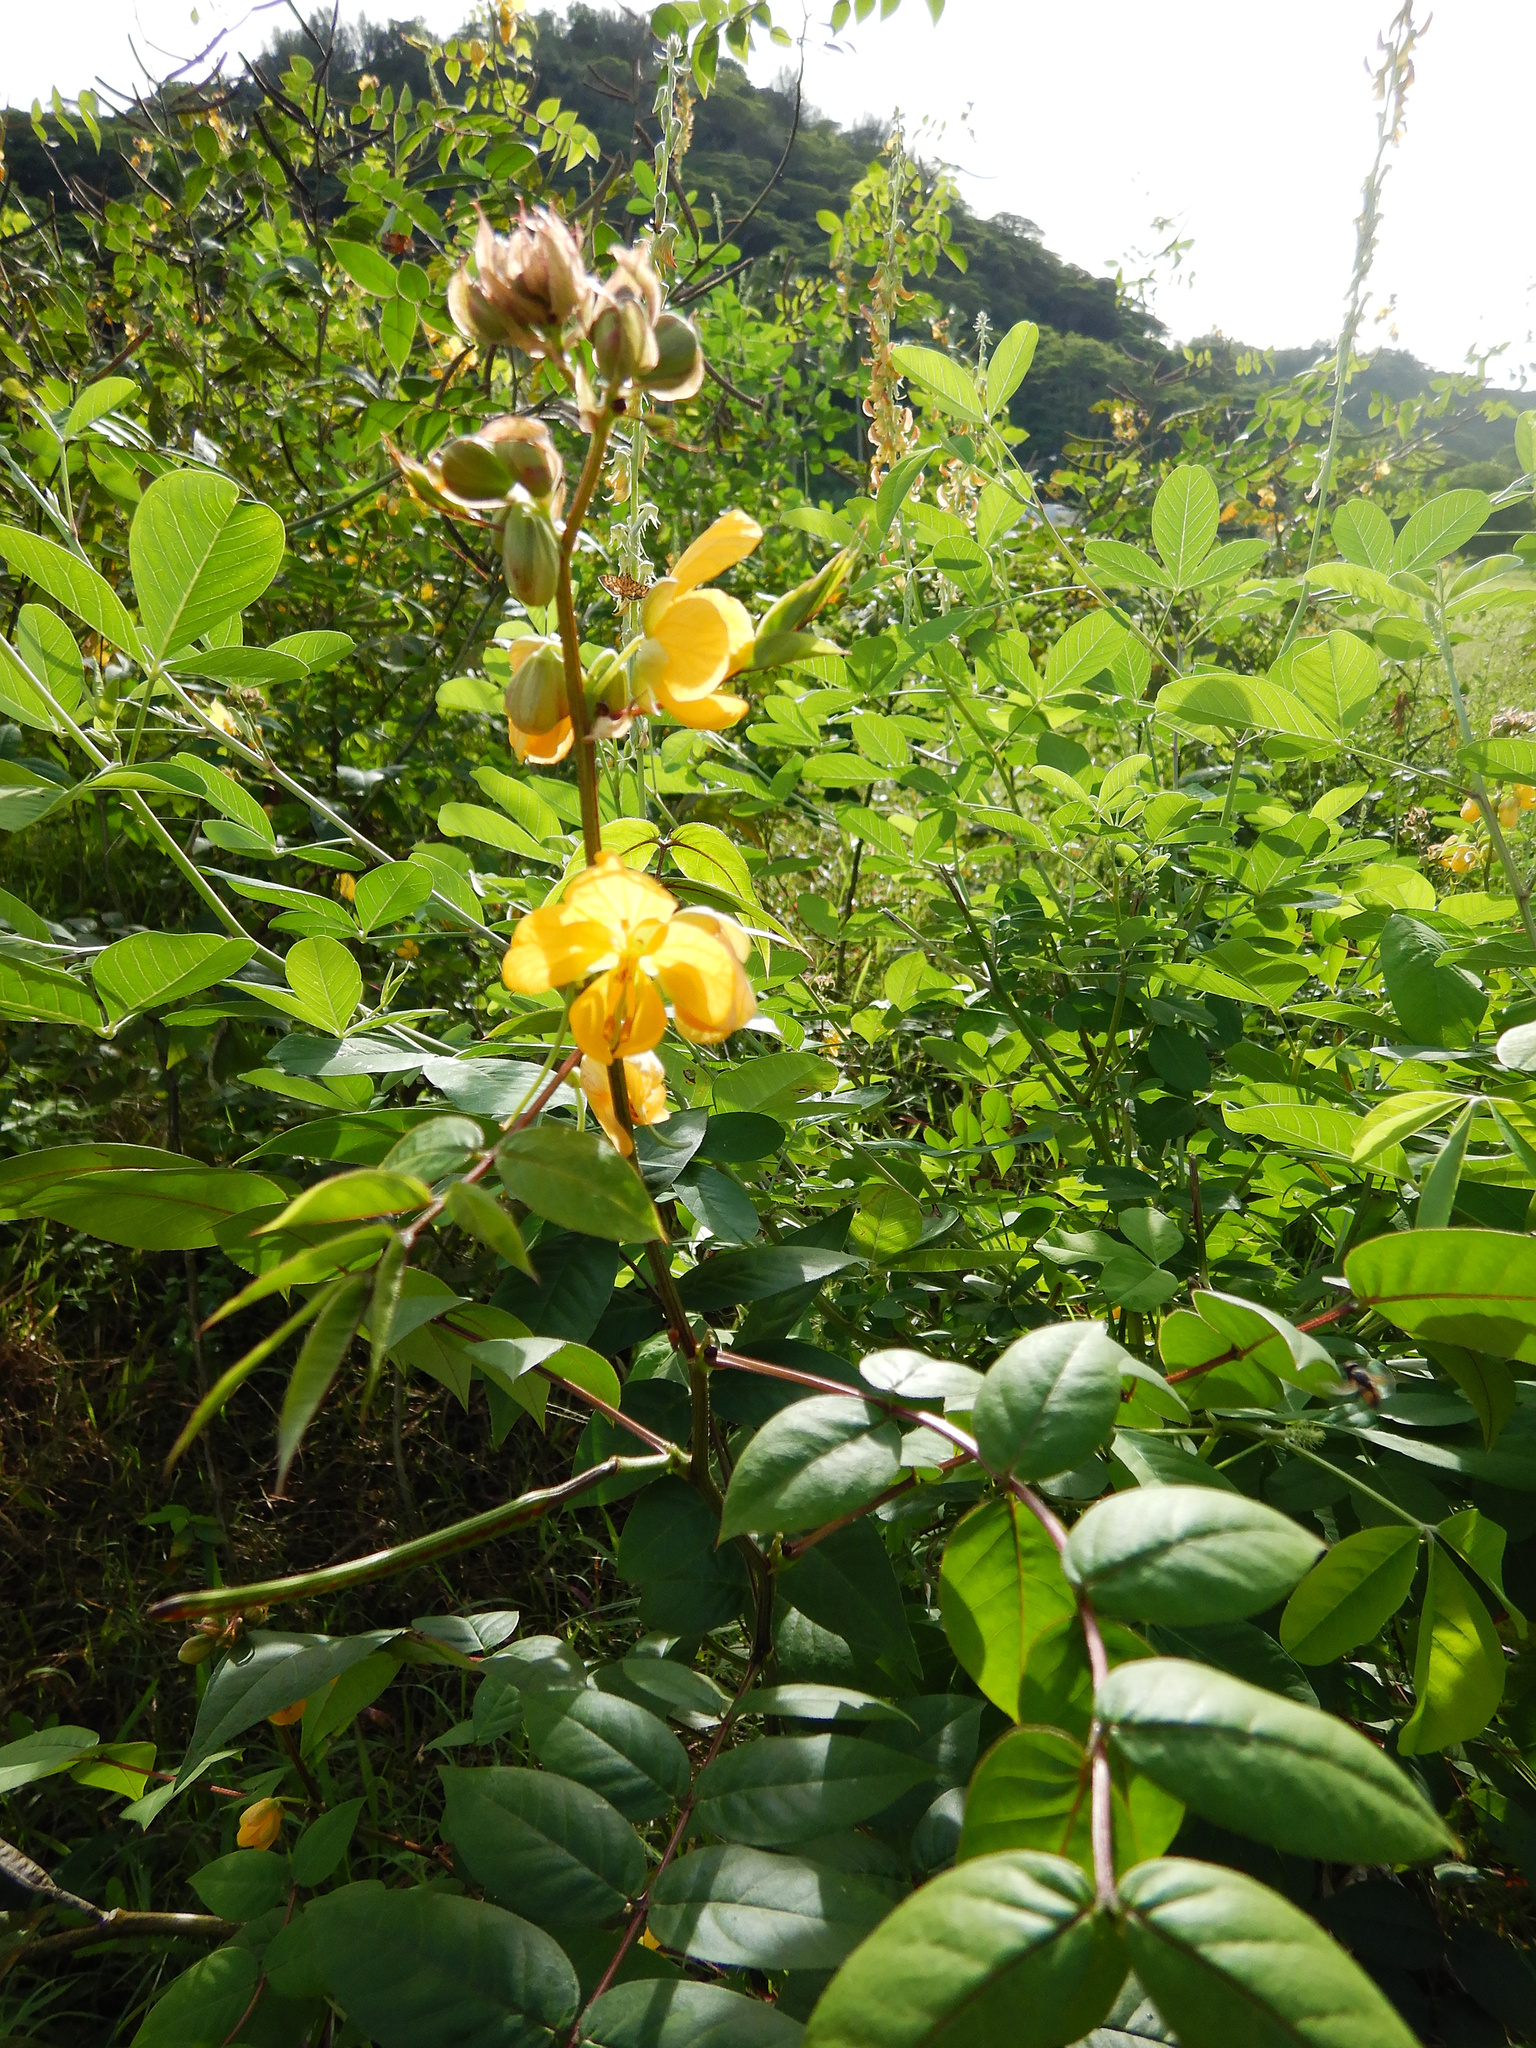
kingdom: Plantae
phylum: Tracheophyta
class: Magnoliopsida
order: Fabales
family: Fabaceae
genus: Senna
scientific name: Senna occidentalis
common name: Septicweed
